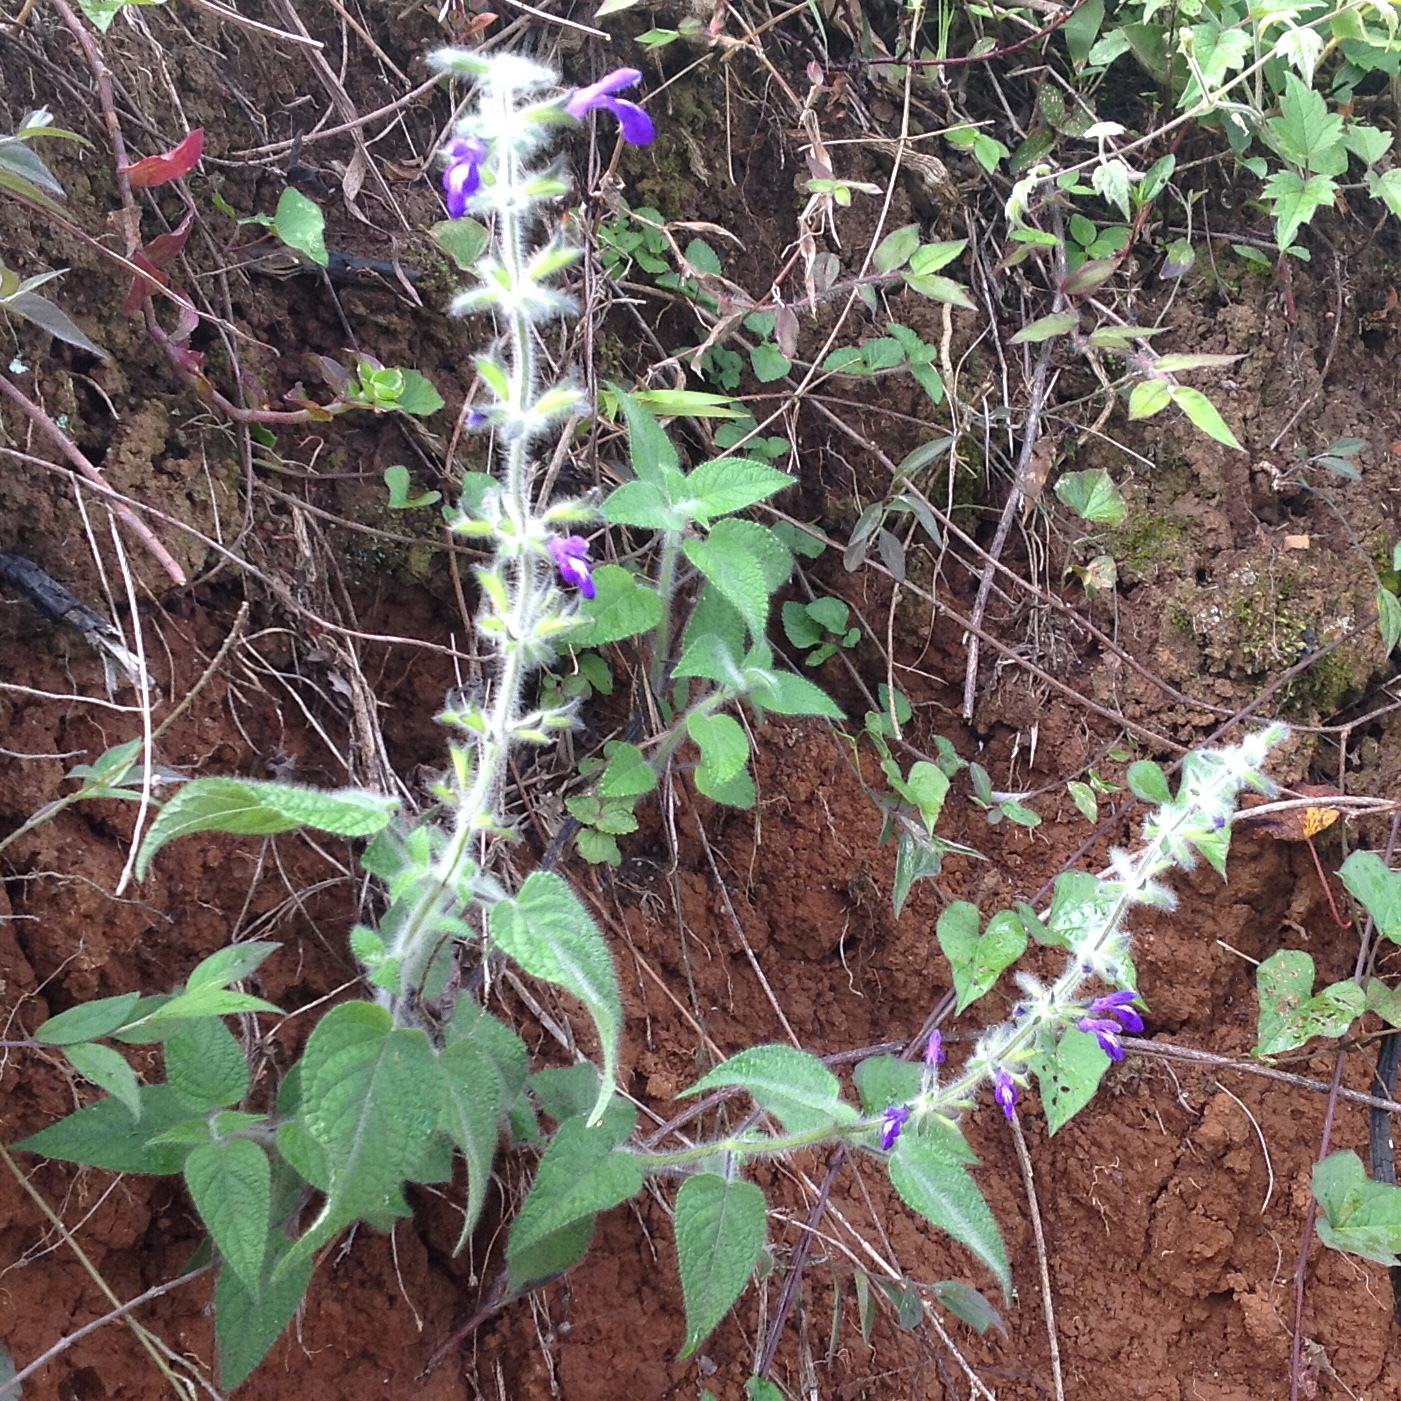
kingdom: Plantae
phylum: Tracheophyta
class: Magnoliopsida
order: Lamiales
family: Lamiaceae
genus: Salvia
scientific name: Salvia urica
